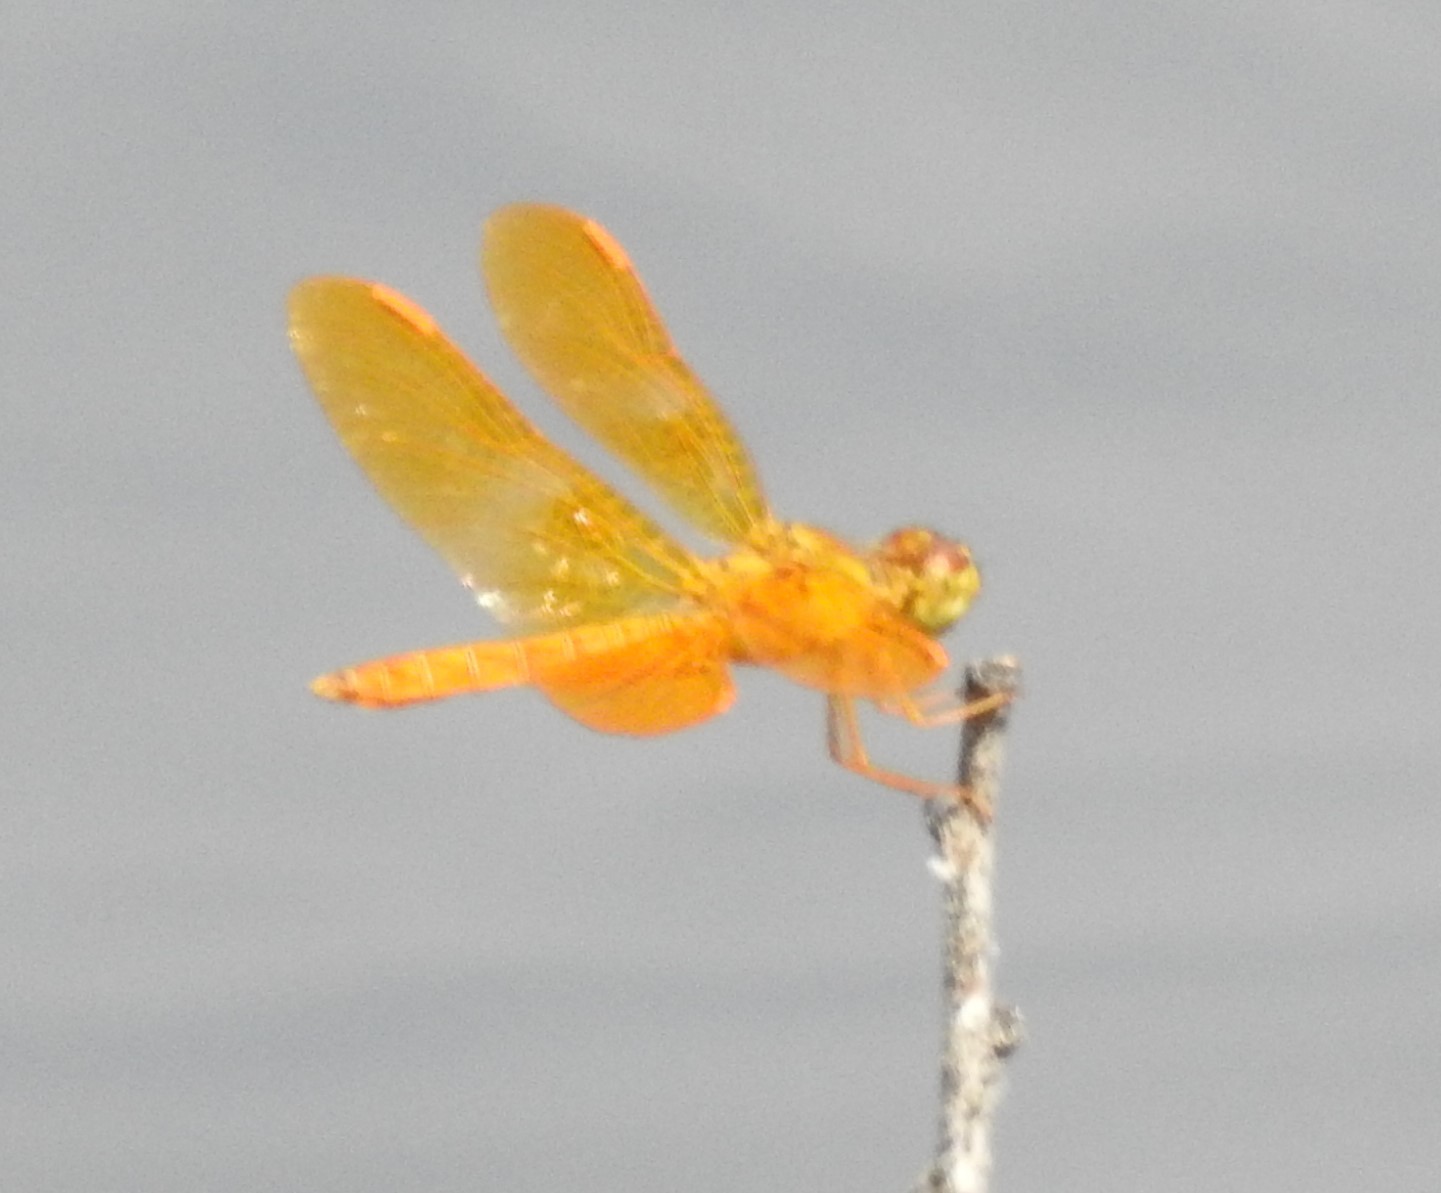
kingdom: Animalia
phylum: Arthropoda
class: Insecta
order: Odonata
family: Libellulidae
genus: Perithemis
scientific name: Perithemis intensa
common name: Mexican amberwing
